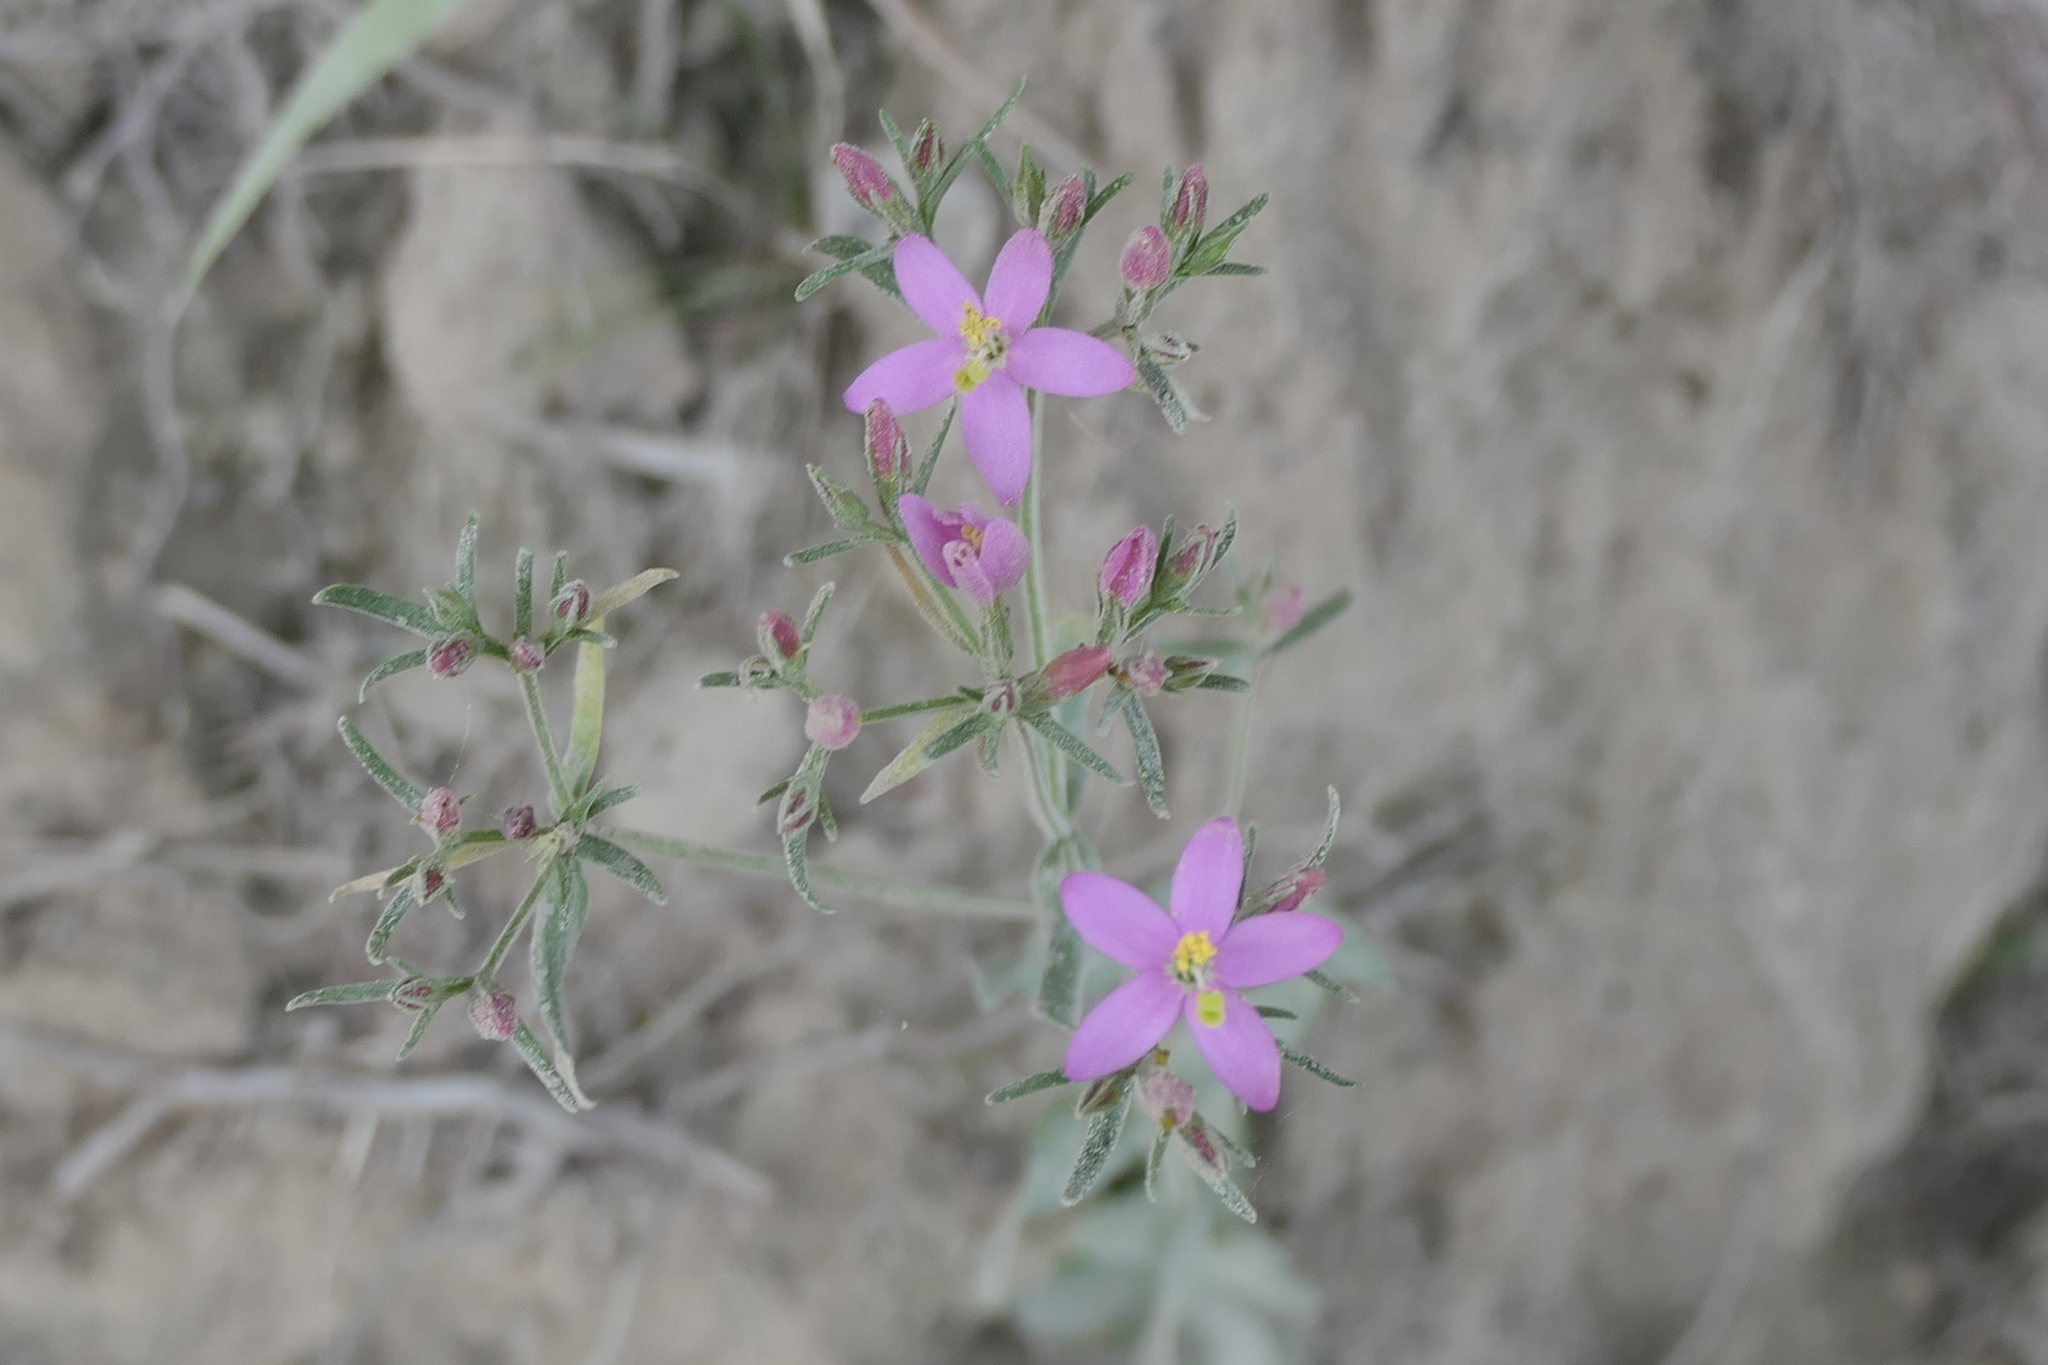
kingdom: Plantae
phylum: Tracheophyta
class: Magnoliopsida
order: Gentianales
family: Gentianaceae
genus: Centaurium
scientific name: Centaurium erythraea
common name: Common centaury
